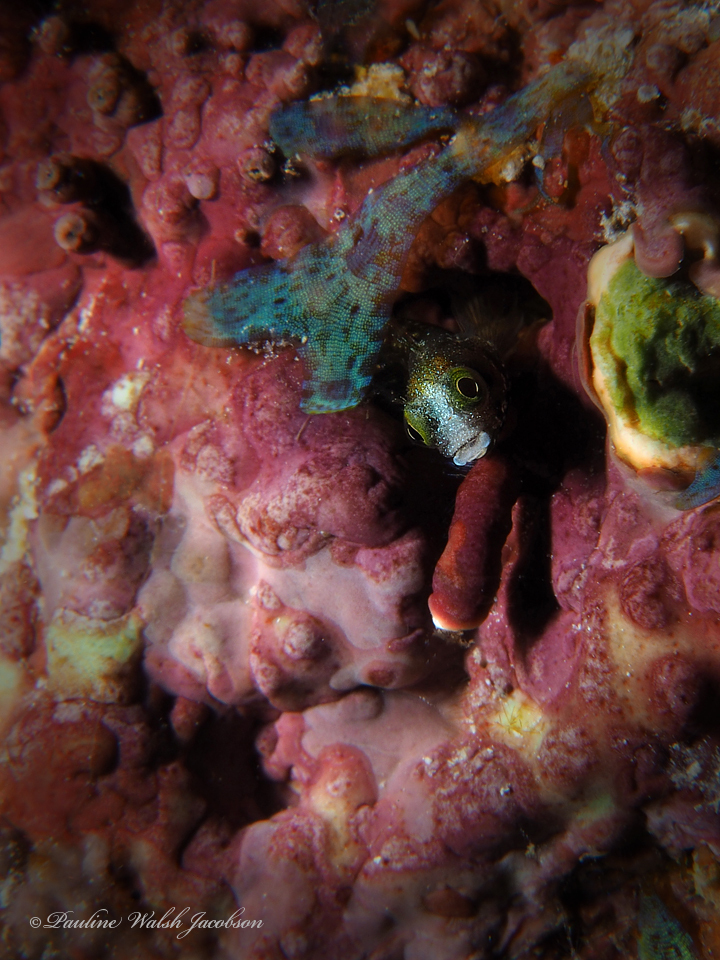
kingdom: Animalia
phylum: Chordata
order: Perciformes
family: Chaenopsidae
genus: Acanthemblemaria
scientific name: Acanthemblemaria spinosa
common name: Spinyhead blenny
